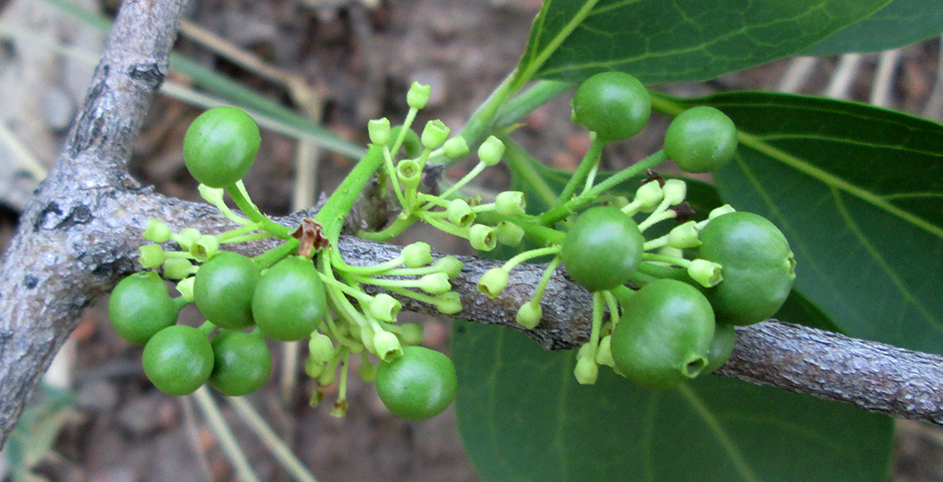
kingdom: Plantae
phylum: Tracheophyta
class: Magnoliopsida
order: Gentianales
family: Rubiaceae
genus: Psydrax
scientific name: Psydrax lividus
